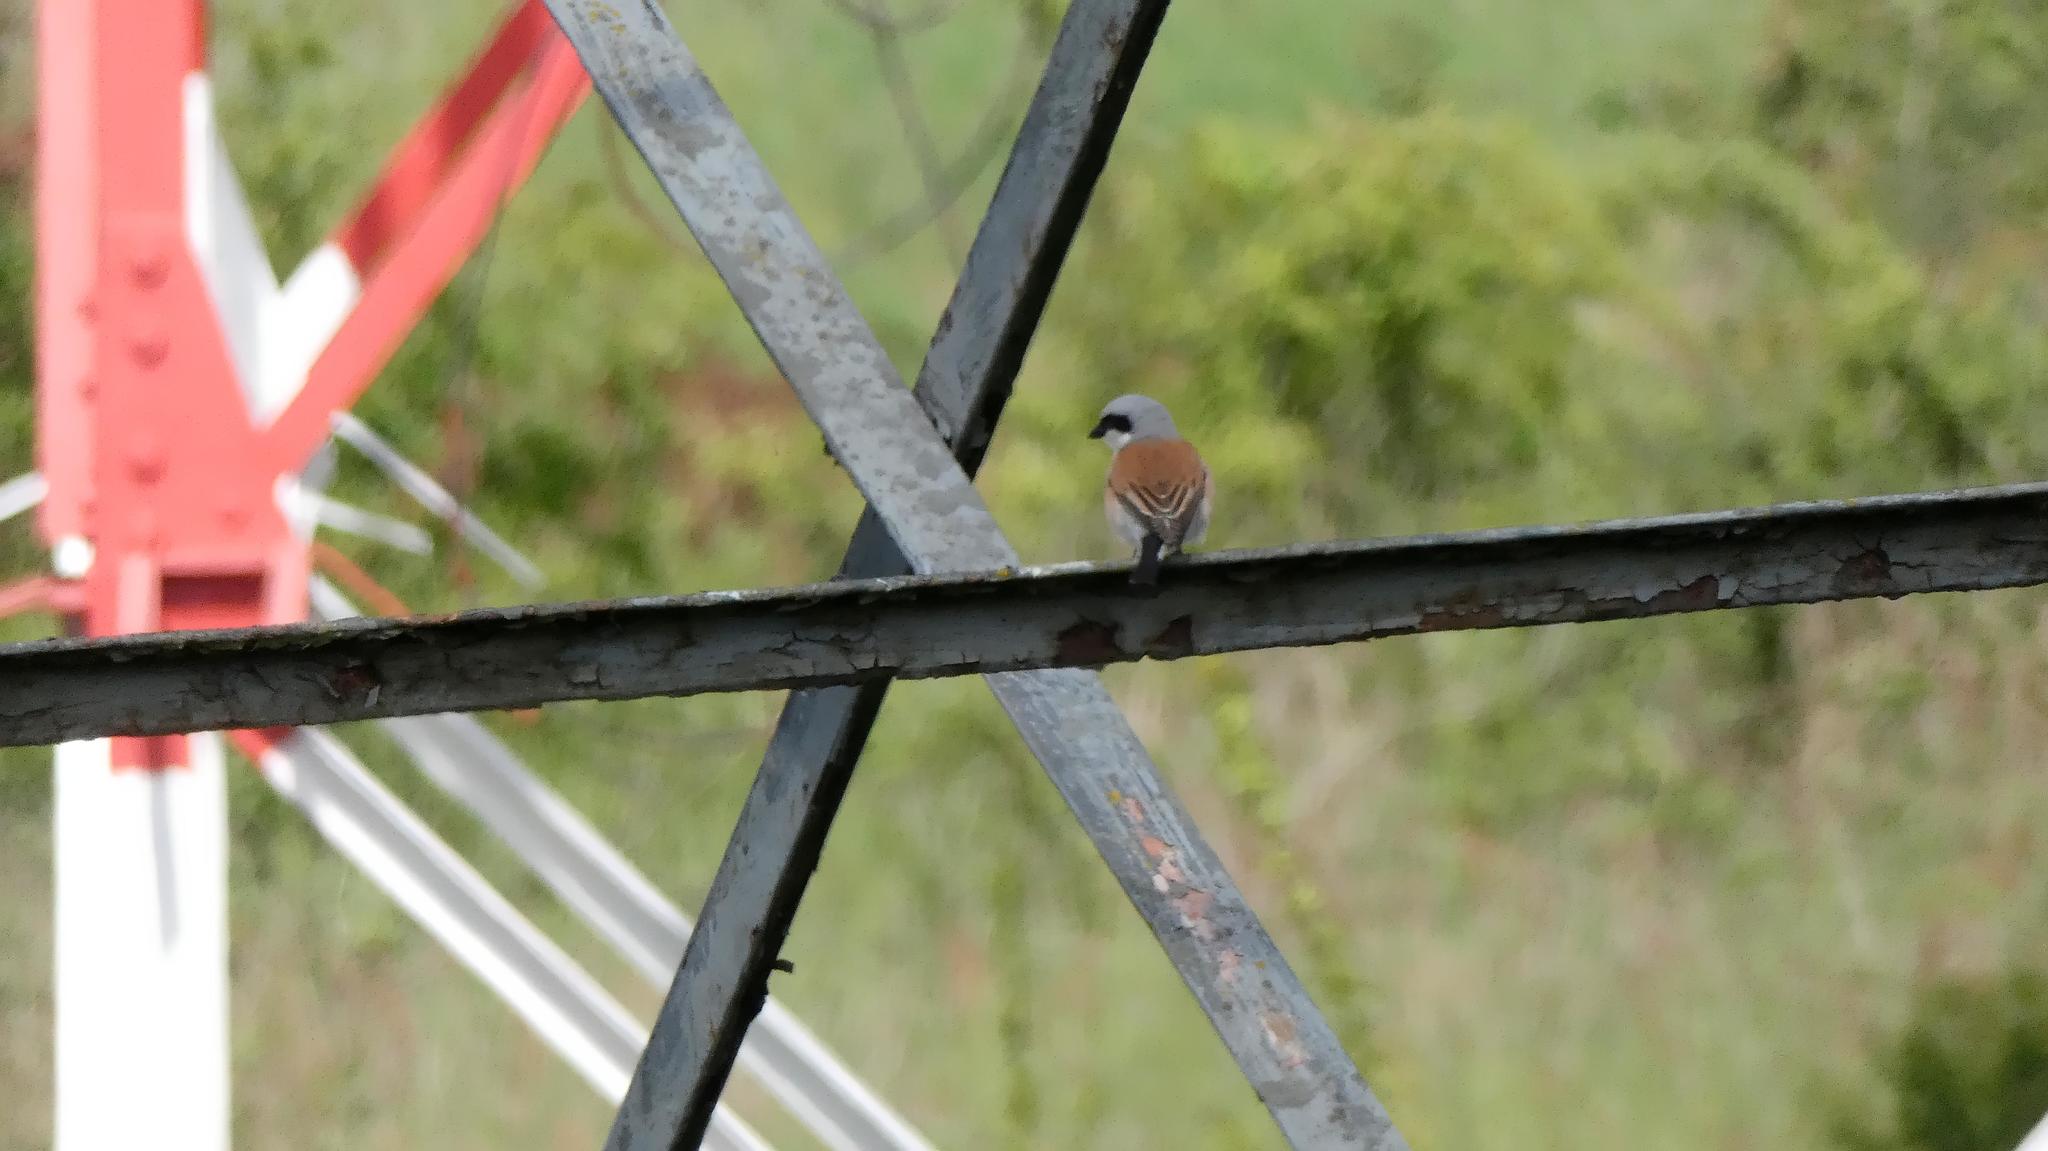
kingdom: Animalia
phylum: Chordata
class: Aves
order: Passeriformes
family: Laniidae
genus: Lanius
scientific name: Lanius collurio
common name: Red-backed shrike
